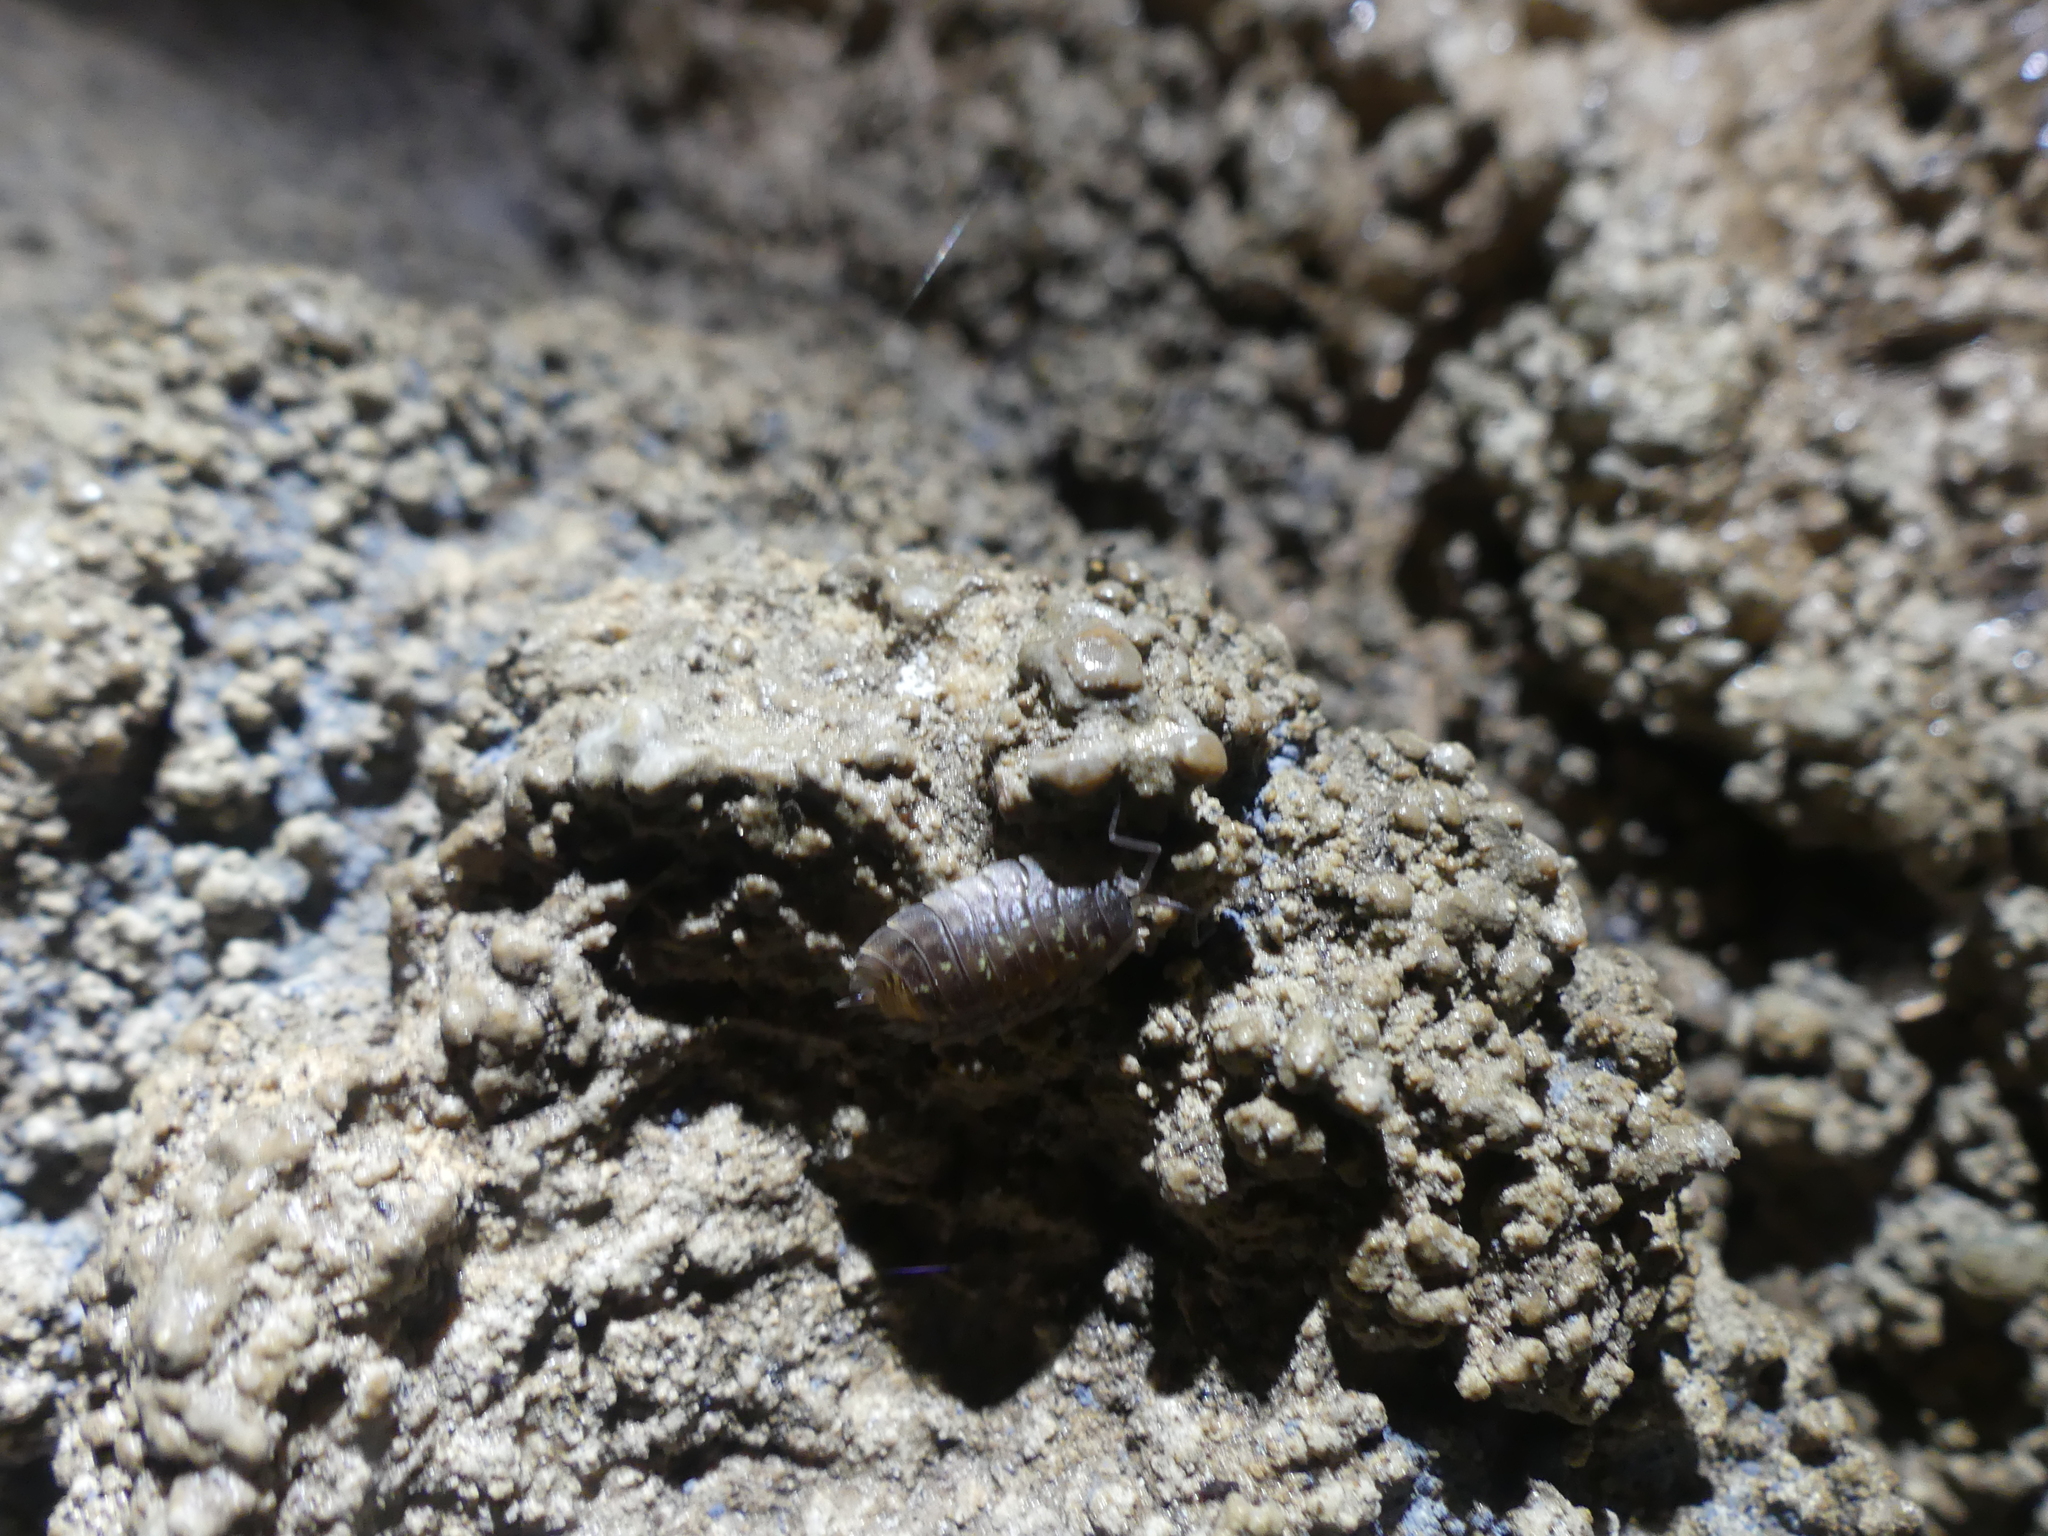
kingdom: Animalia
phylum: Arthropoda
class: Malacostraca
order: Isopoda
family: Oniscidae
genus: Oniscus
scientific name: Oniscus asellus
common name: Common shiny woodlouse
